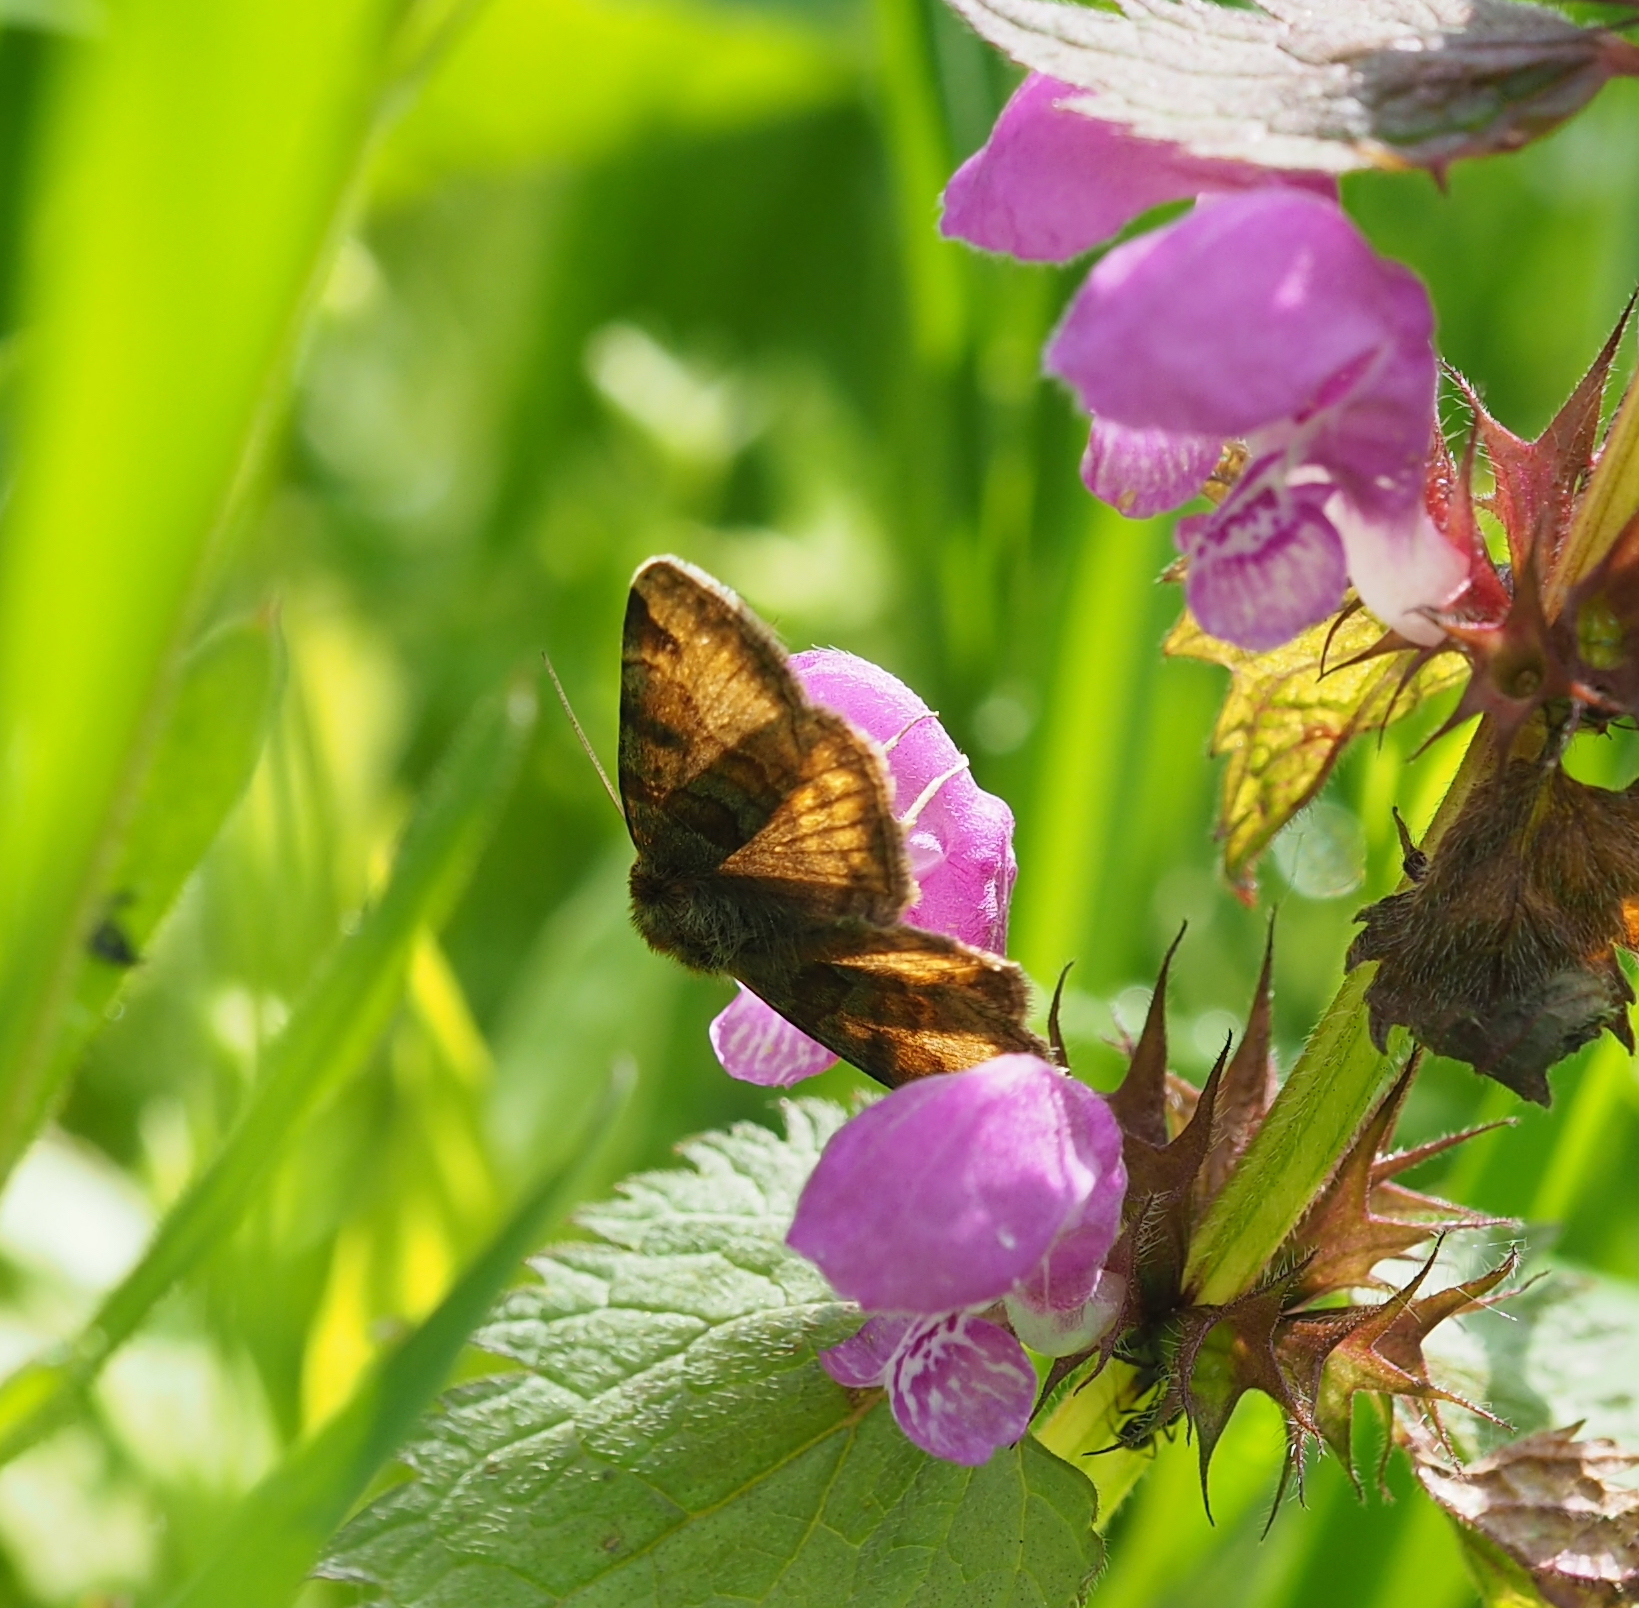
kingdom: Animalia
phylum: Arthropoda
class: Insecta
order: Lepidoptera
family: Erebidae
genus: Euclidia
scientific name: Euclidia glyphica
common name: Burnet companion
